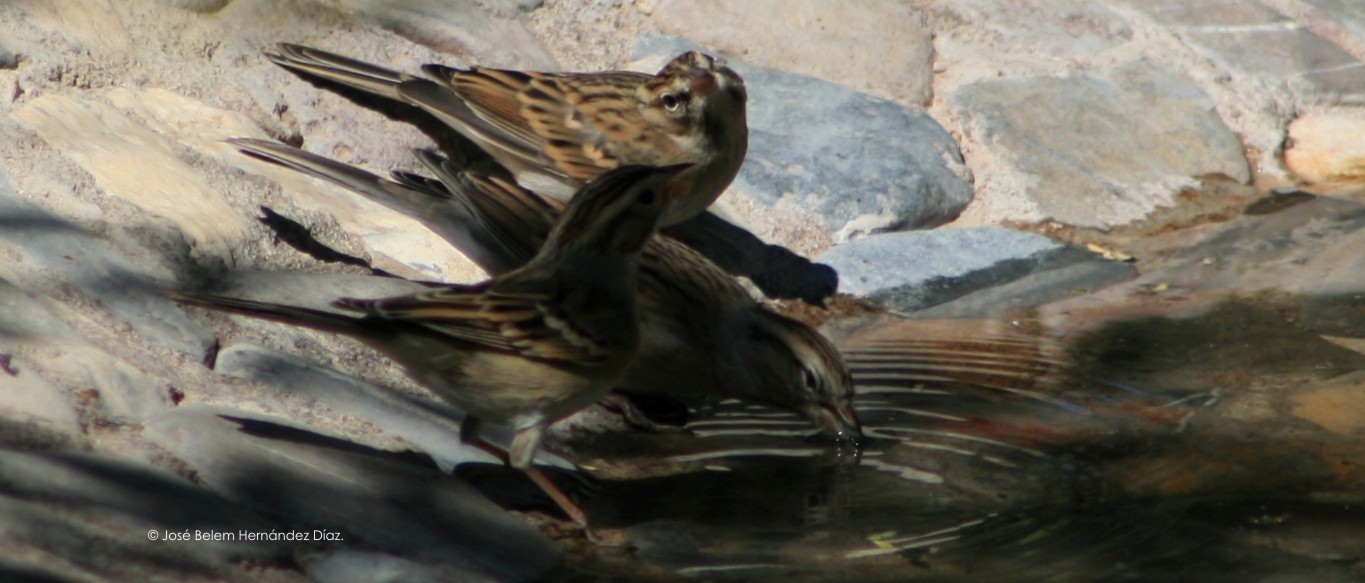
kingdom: Animalia
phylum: Chordata
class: Aves
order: Passeriformes
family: Passerellidae
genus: Spizella
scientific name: Spizella pallida
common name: Clay-colored sparrow
